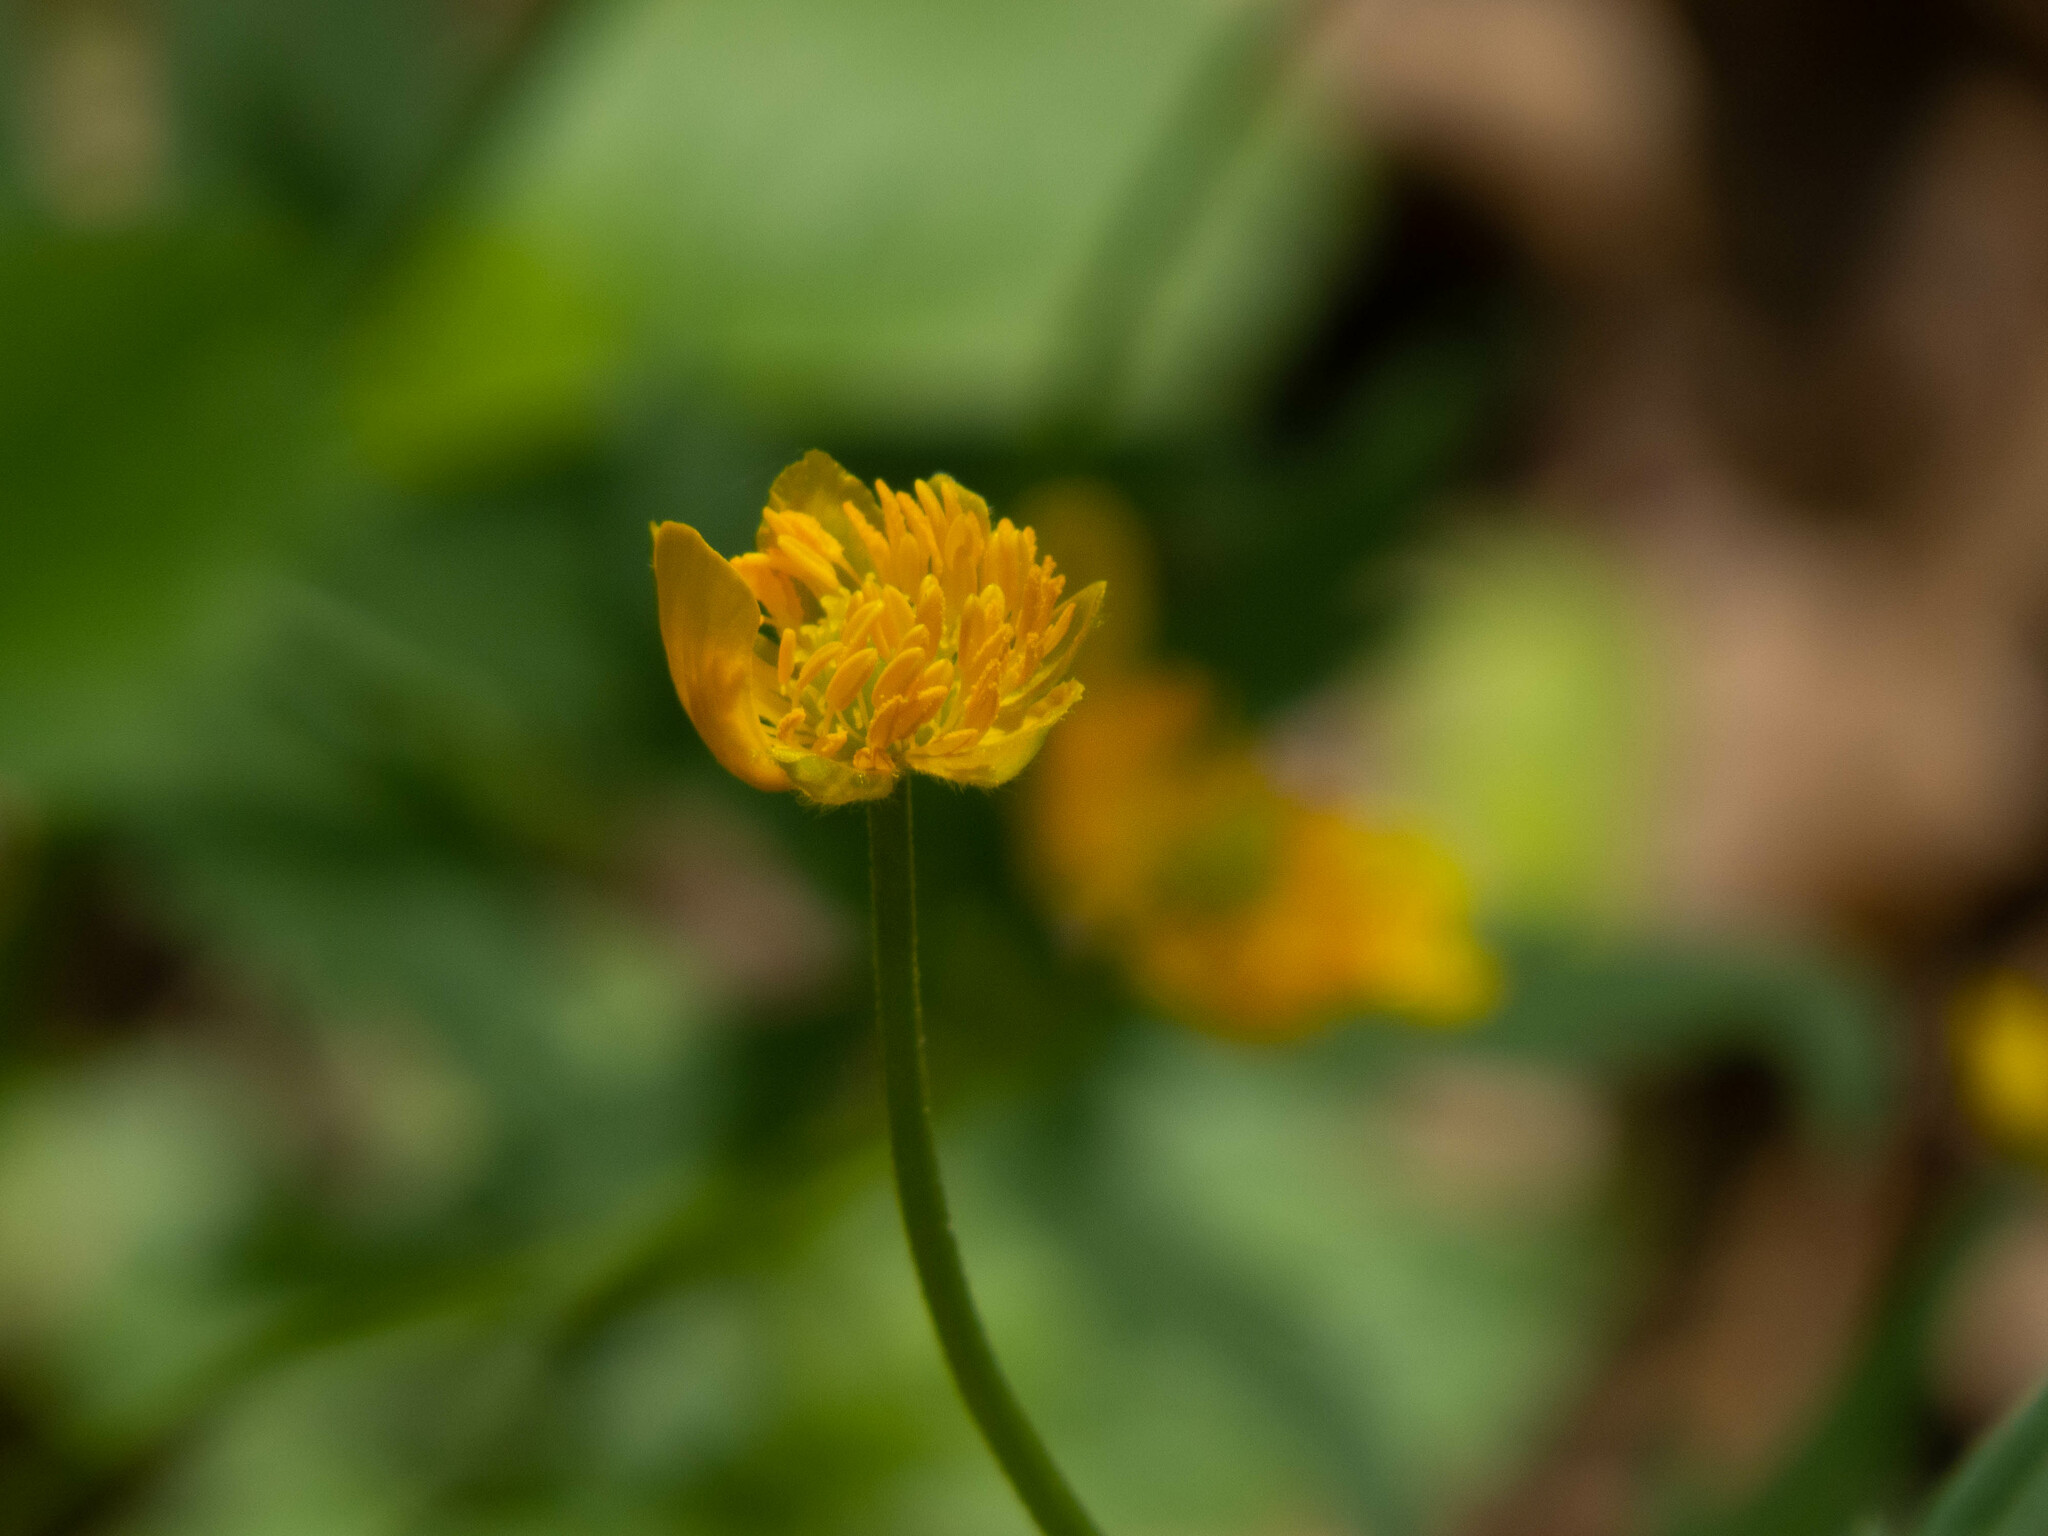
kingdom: Plantae
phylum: Tracheophyta
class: Magnoliopsida
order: Ranunculales
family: Ranunculaceae
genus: Ranunculus
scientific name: Ranunculus cassubicus
